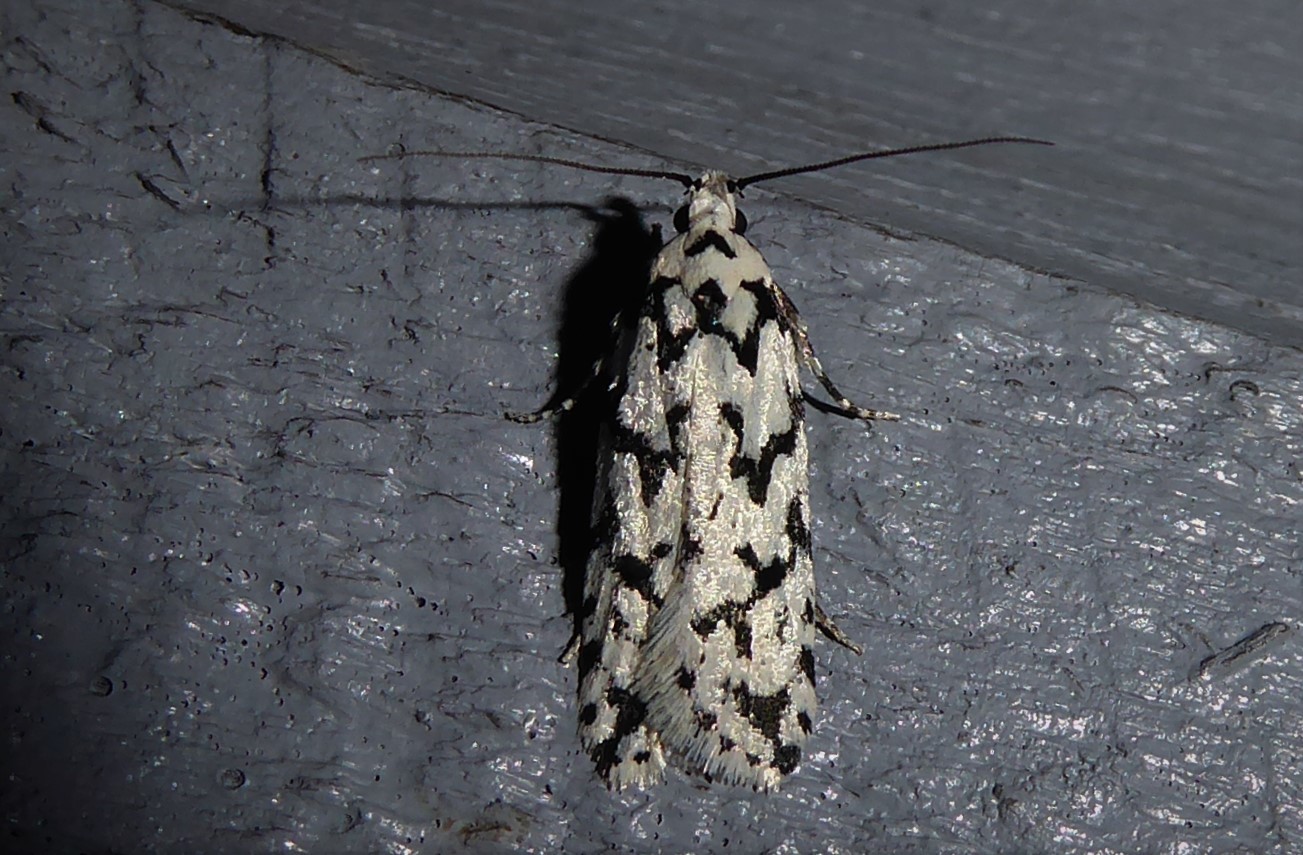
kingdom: Animalia
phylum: Arthropoda
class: Insecta
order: Lepidoptera
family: Oecophoridae
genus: Izatha
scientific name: Izatha katadiktya
